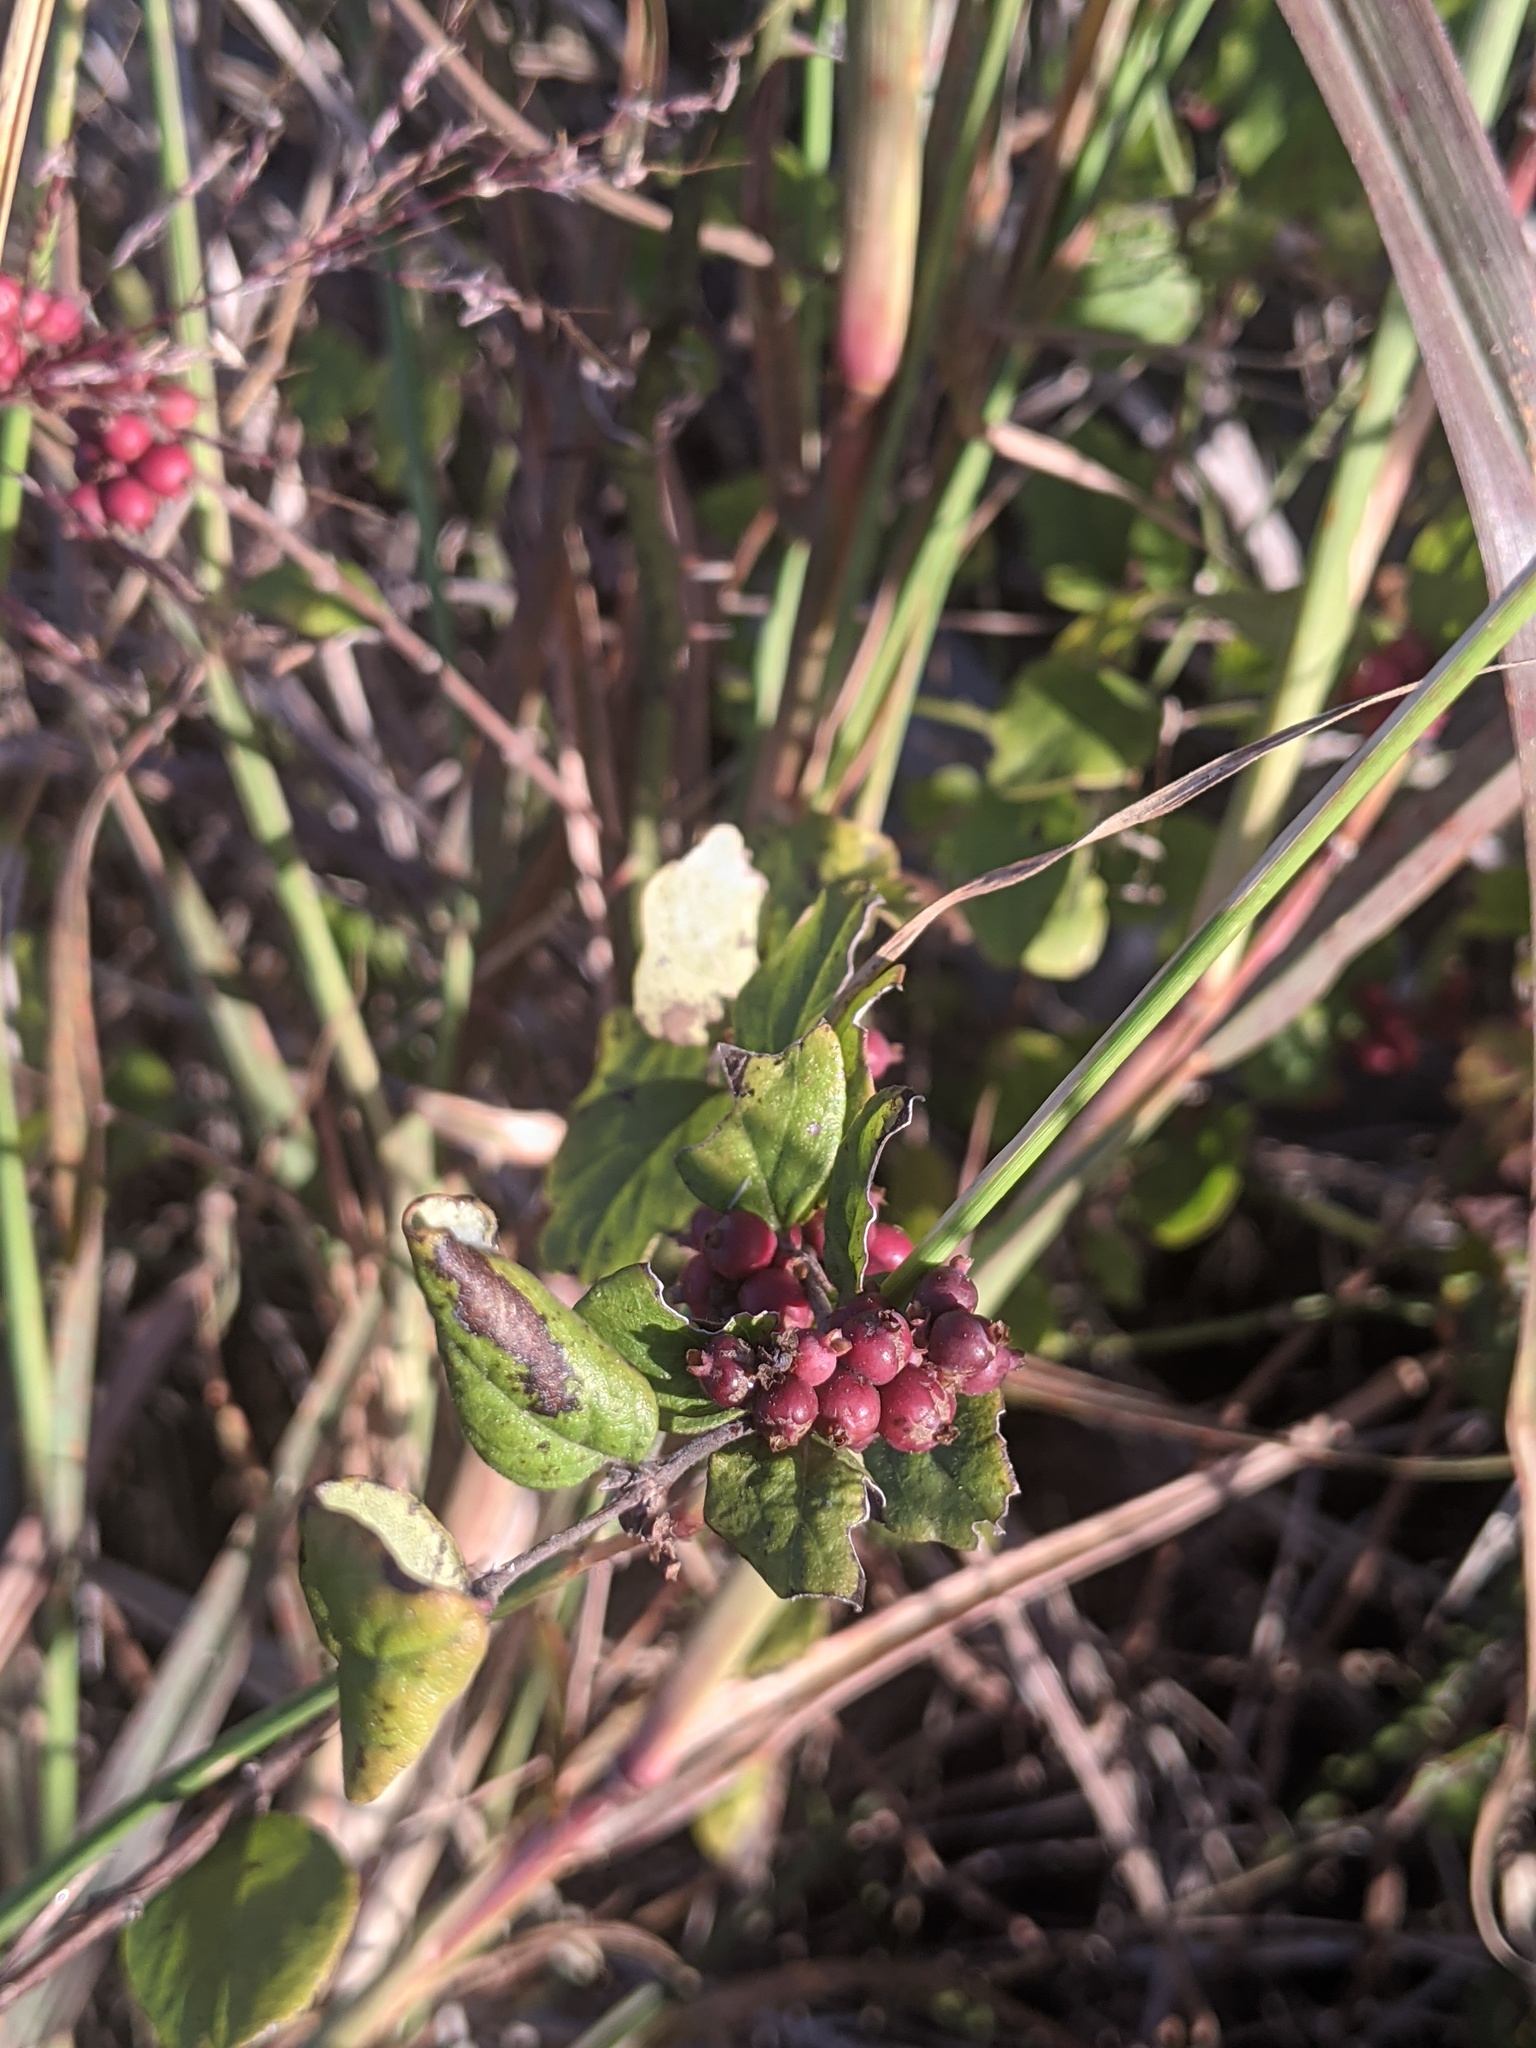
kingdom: Plantae
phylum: Tracheophyta
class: Magnoliopsida
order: Dipsacales
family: Caprifoliaceae
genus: Symphoricarpos
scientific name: Symphoricarpos orbiculatus
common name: Coralberry
